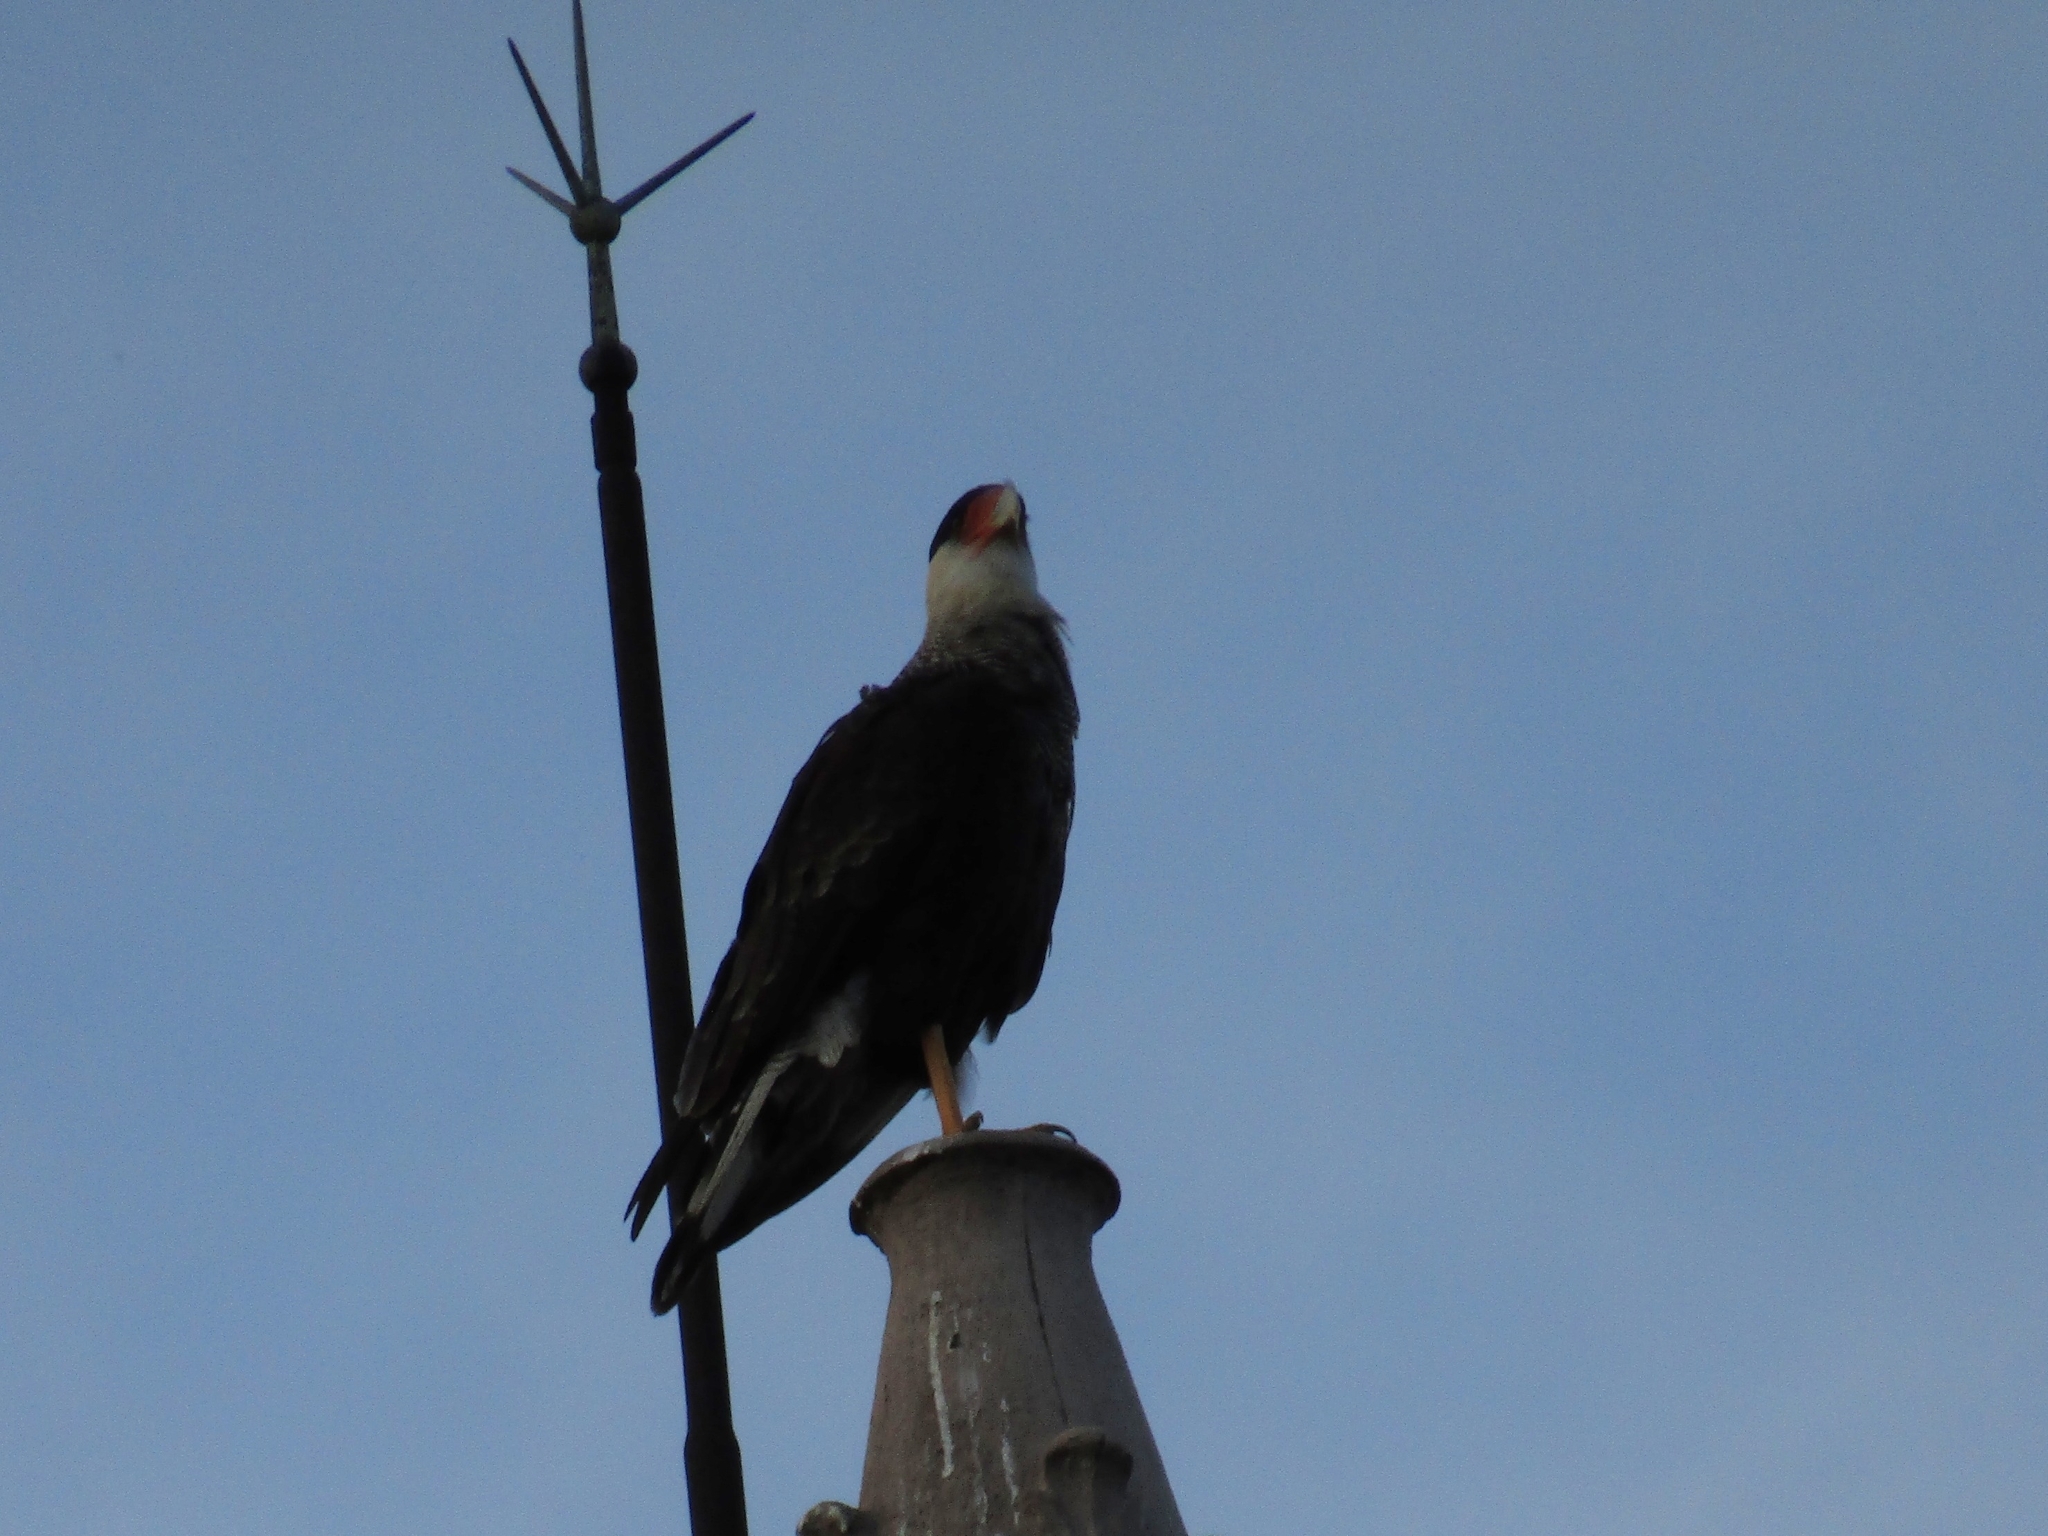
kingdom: Animalia
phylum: Chordata
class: Aves
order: Falconiformes
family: Falconidae
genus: Caracara
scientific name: Caracara plancus
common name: Southern caracara
